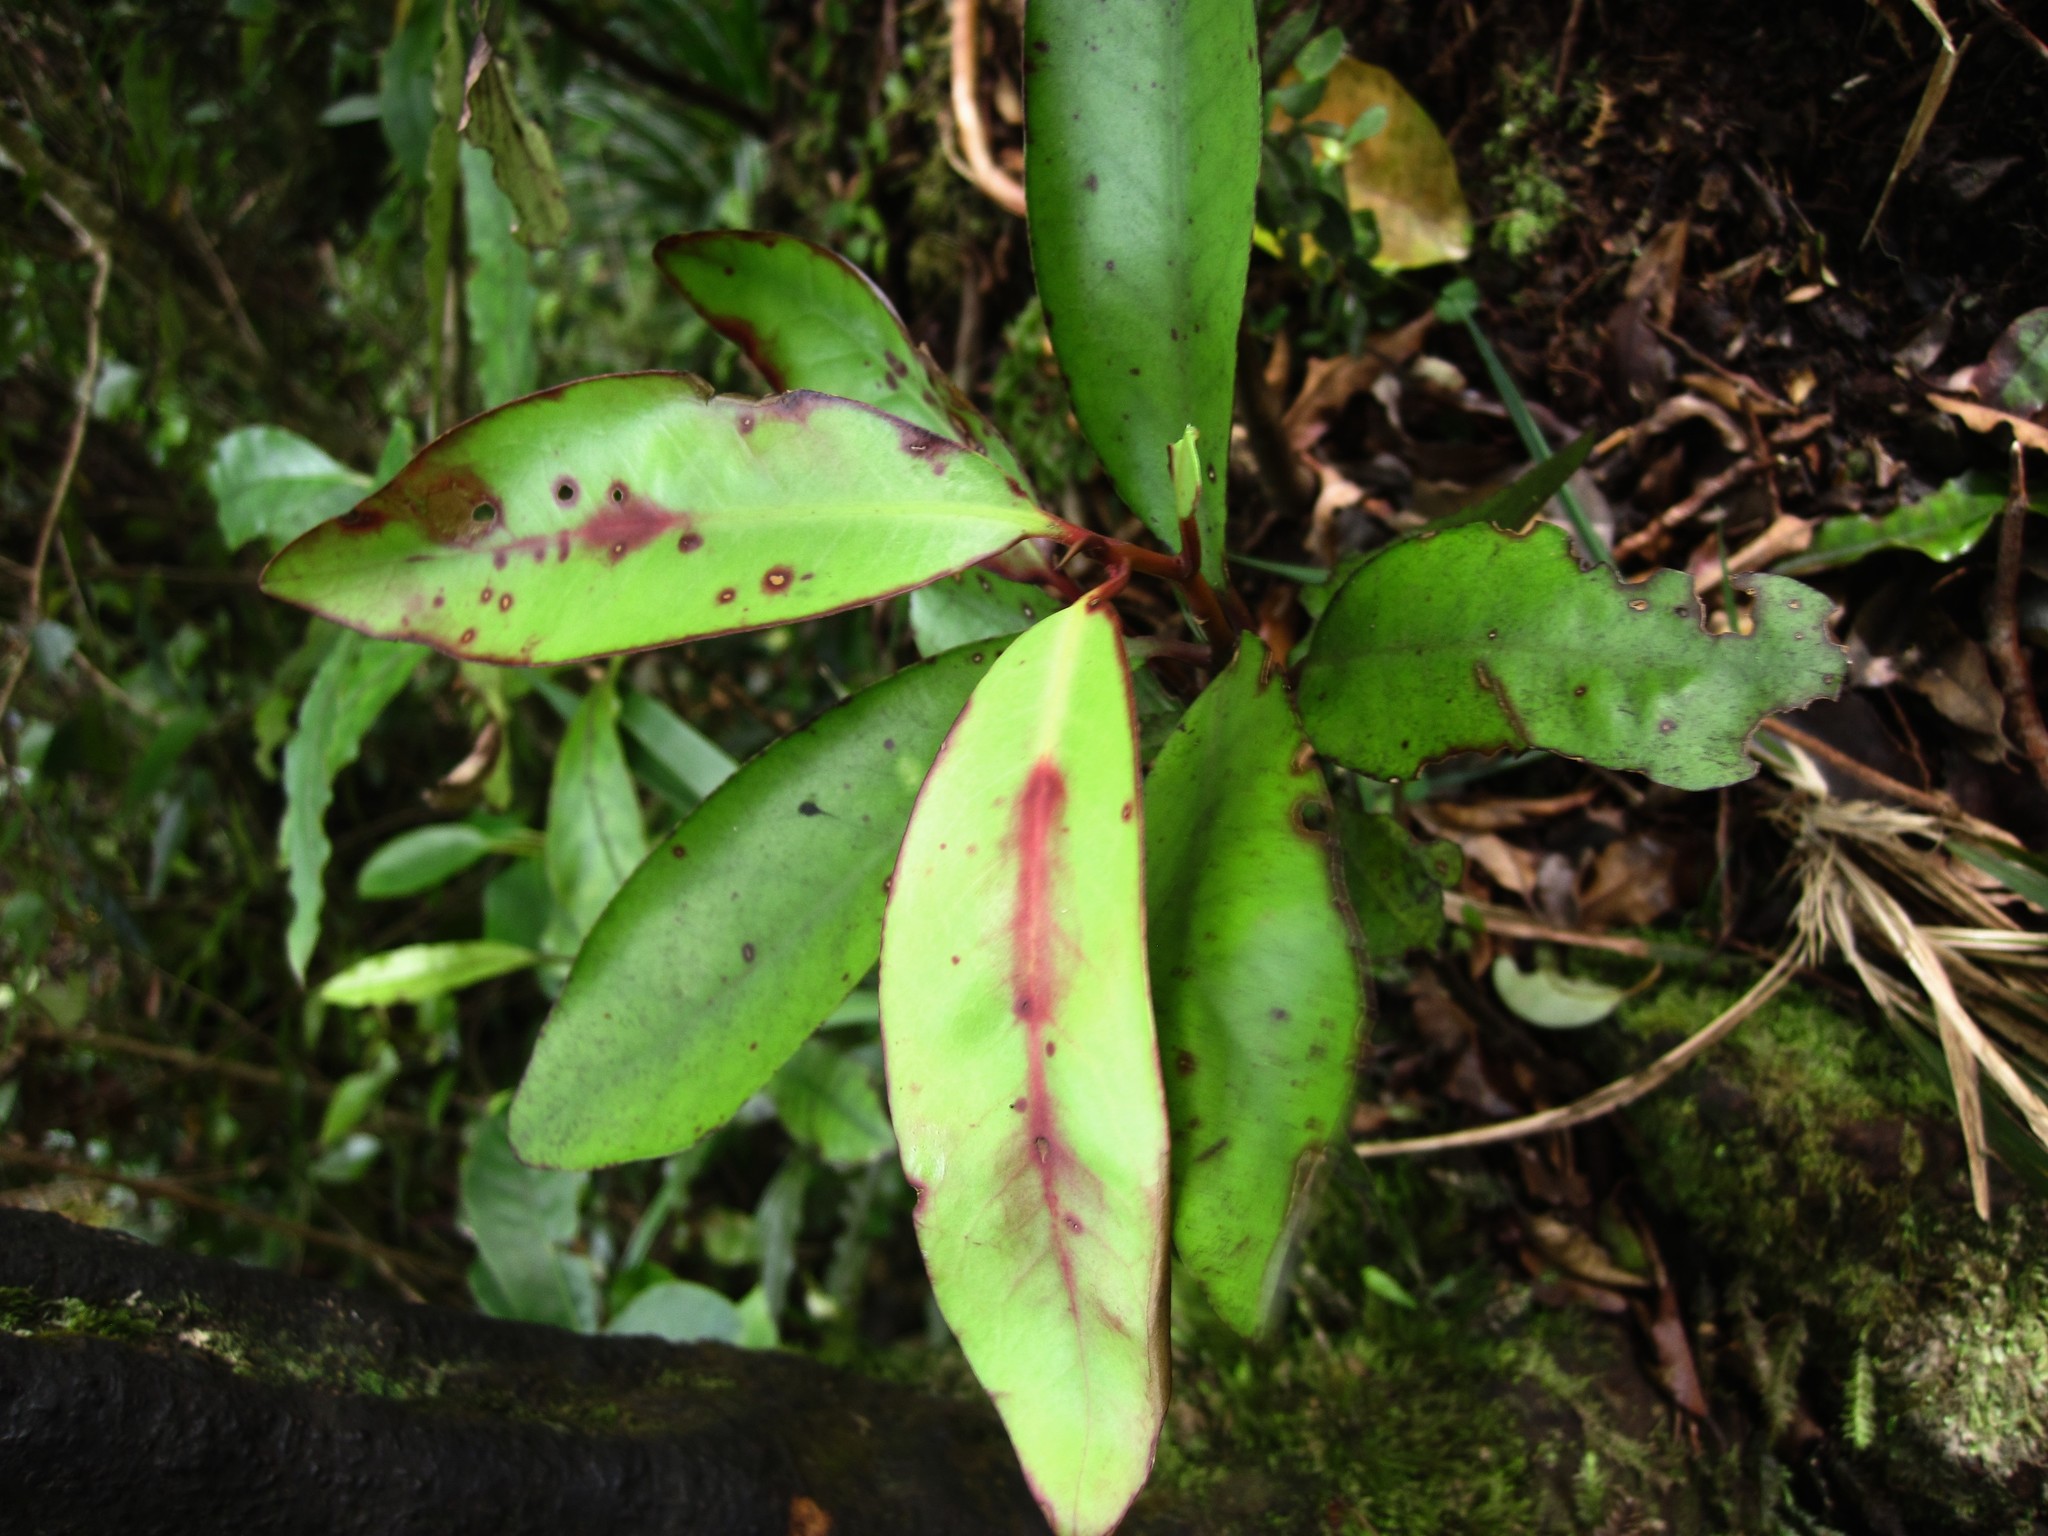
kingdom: Plantae
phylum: Tracheophyta
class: Magnoliopsida
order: Canellales
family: Winteraceae
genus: Pseudowintera
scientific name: Pseudowintera colorata
